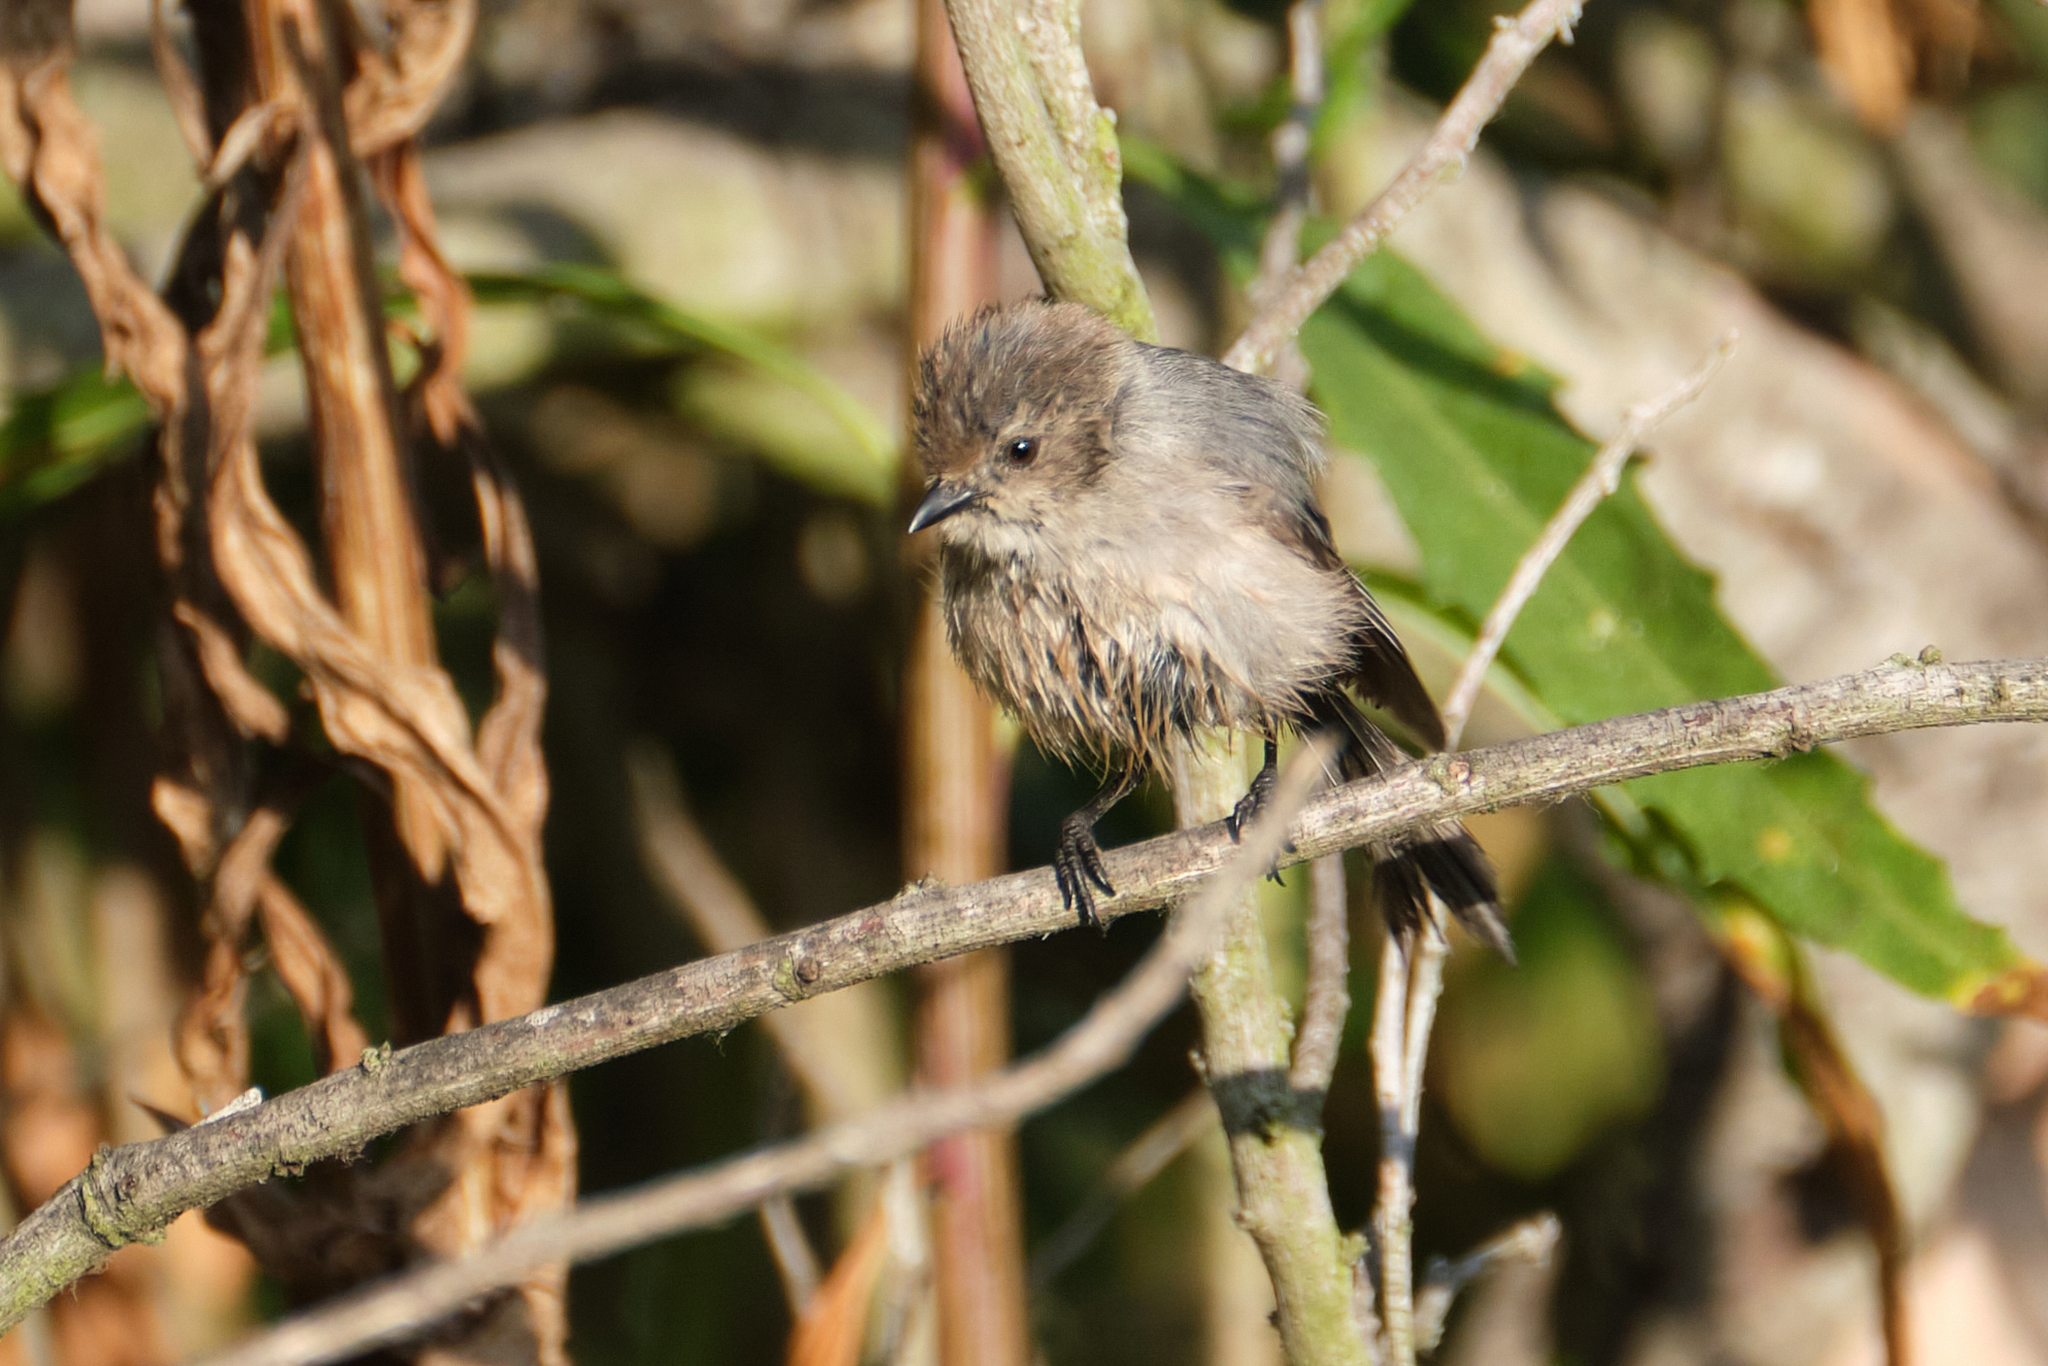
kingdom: Animalia
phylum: Chordata
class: Aves
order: Passeriformes
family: Aegithalidae
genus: Psaltriparus
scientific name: Psaltriparus minimus
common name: American bushtit
